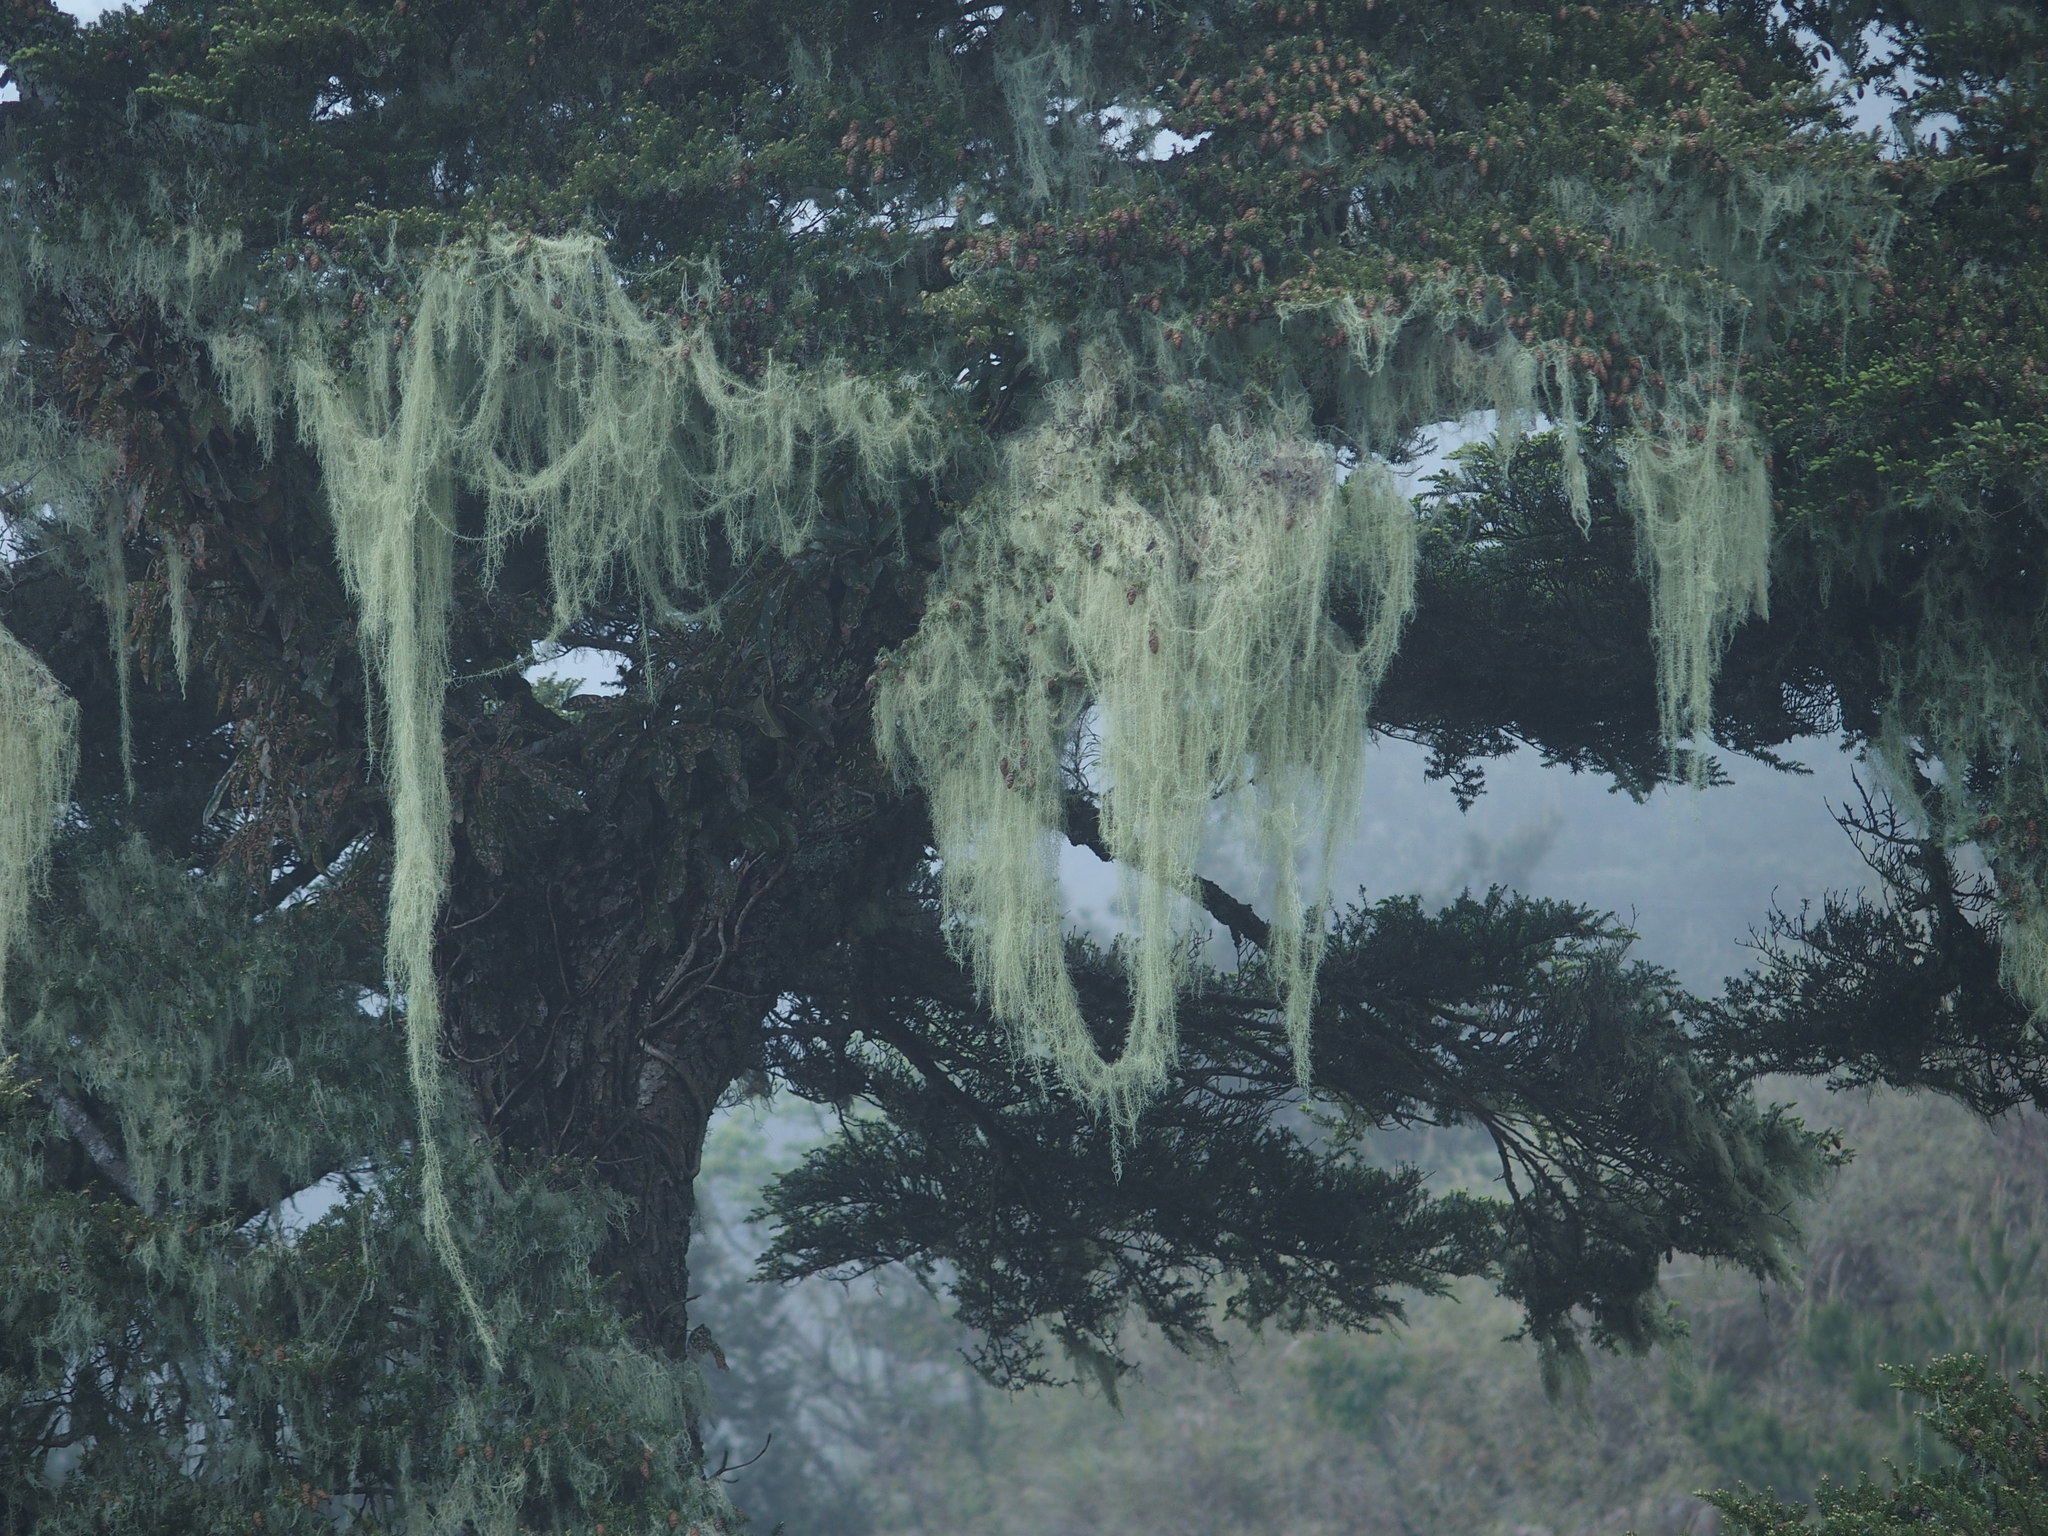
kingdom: Fungi
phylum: Ascomycota
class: Lecanoromycetes
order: Lecanorales
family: Parmeliaceae
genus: Dolichousnea
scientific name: Dolichousnea longissima
